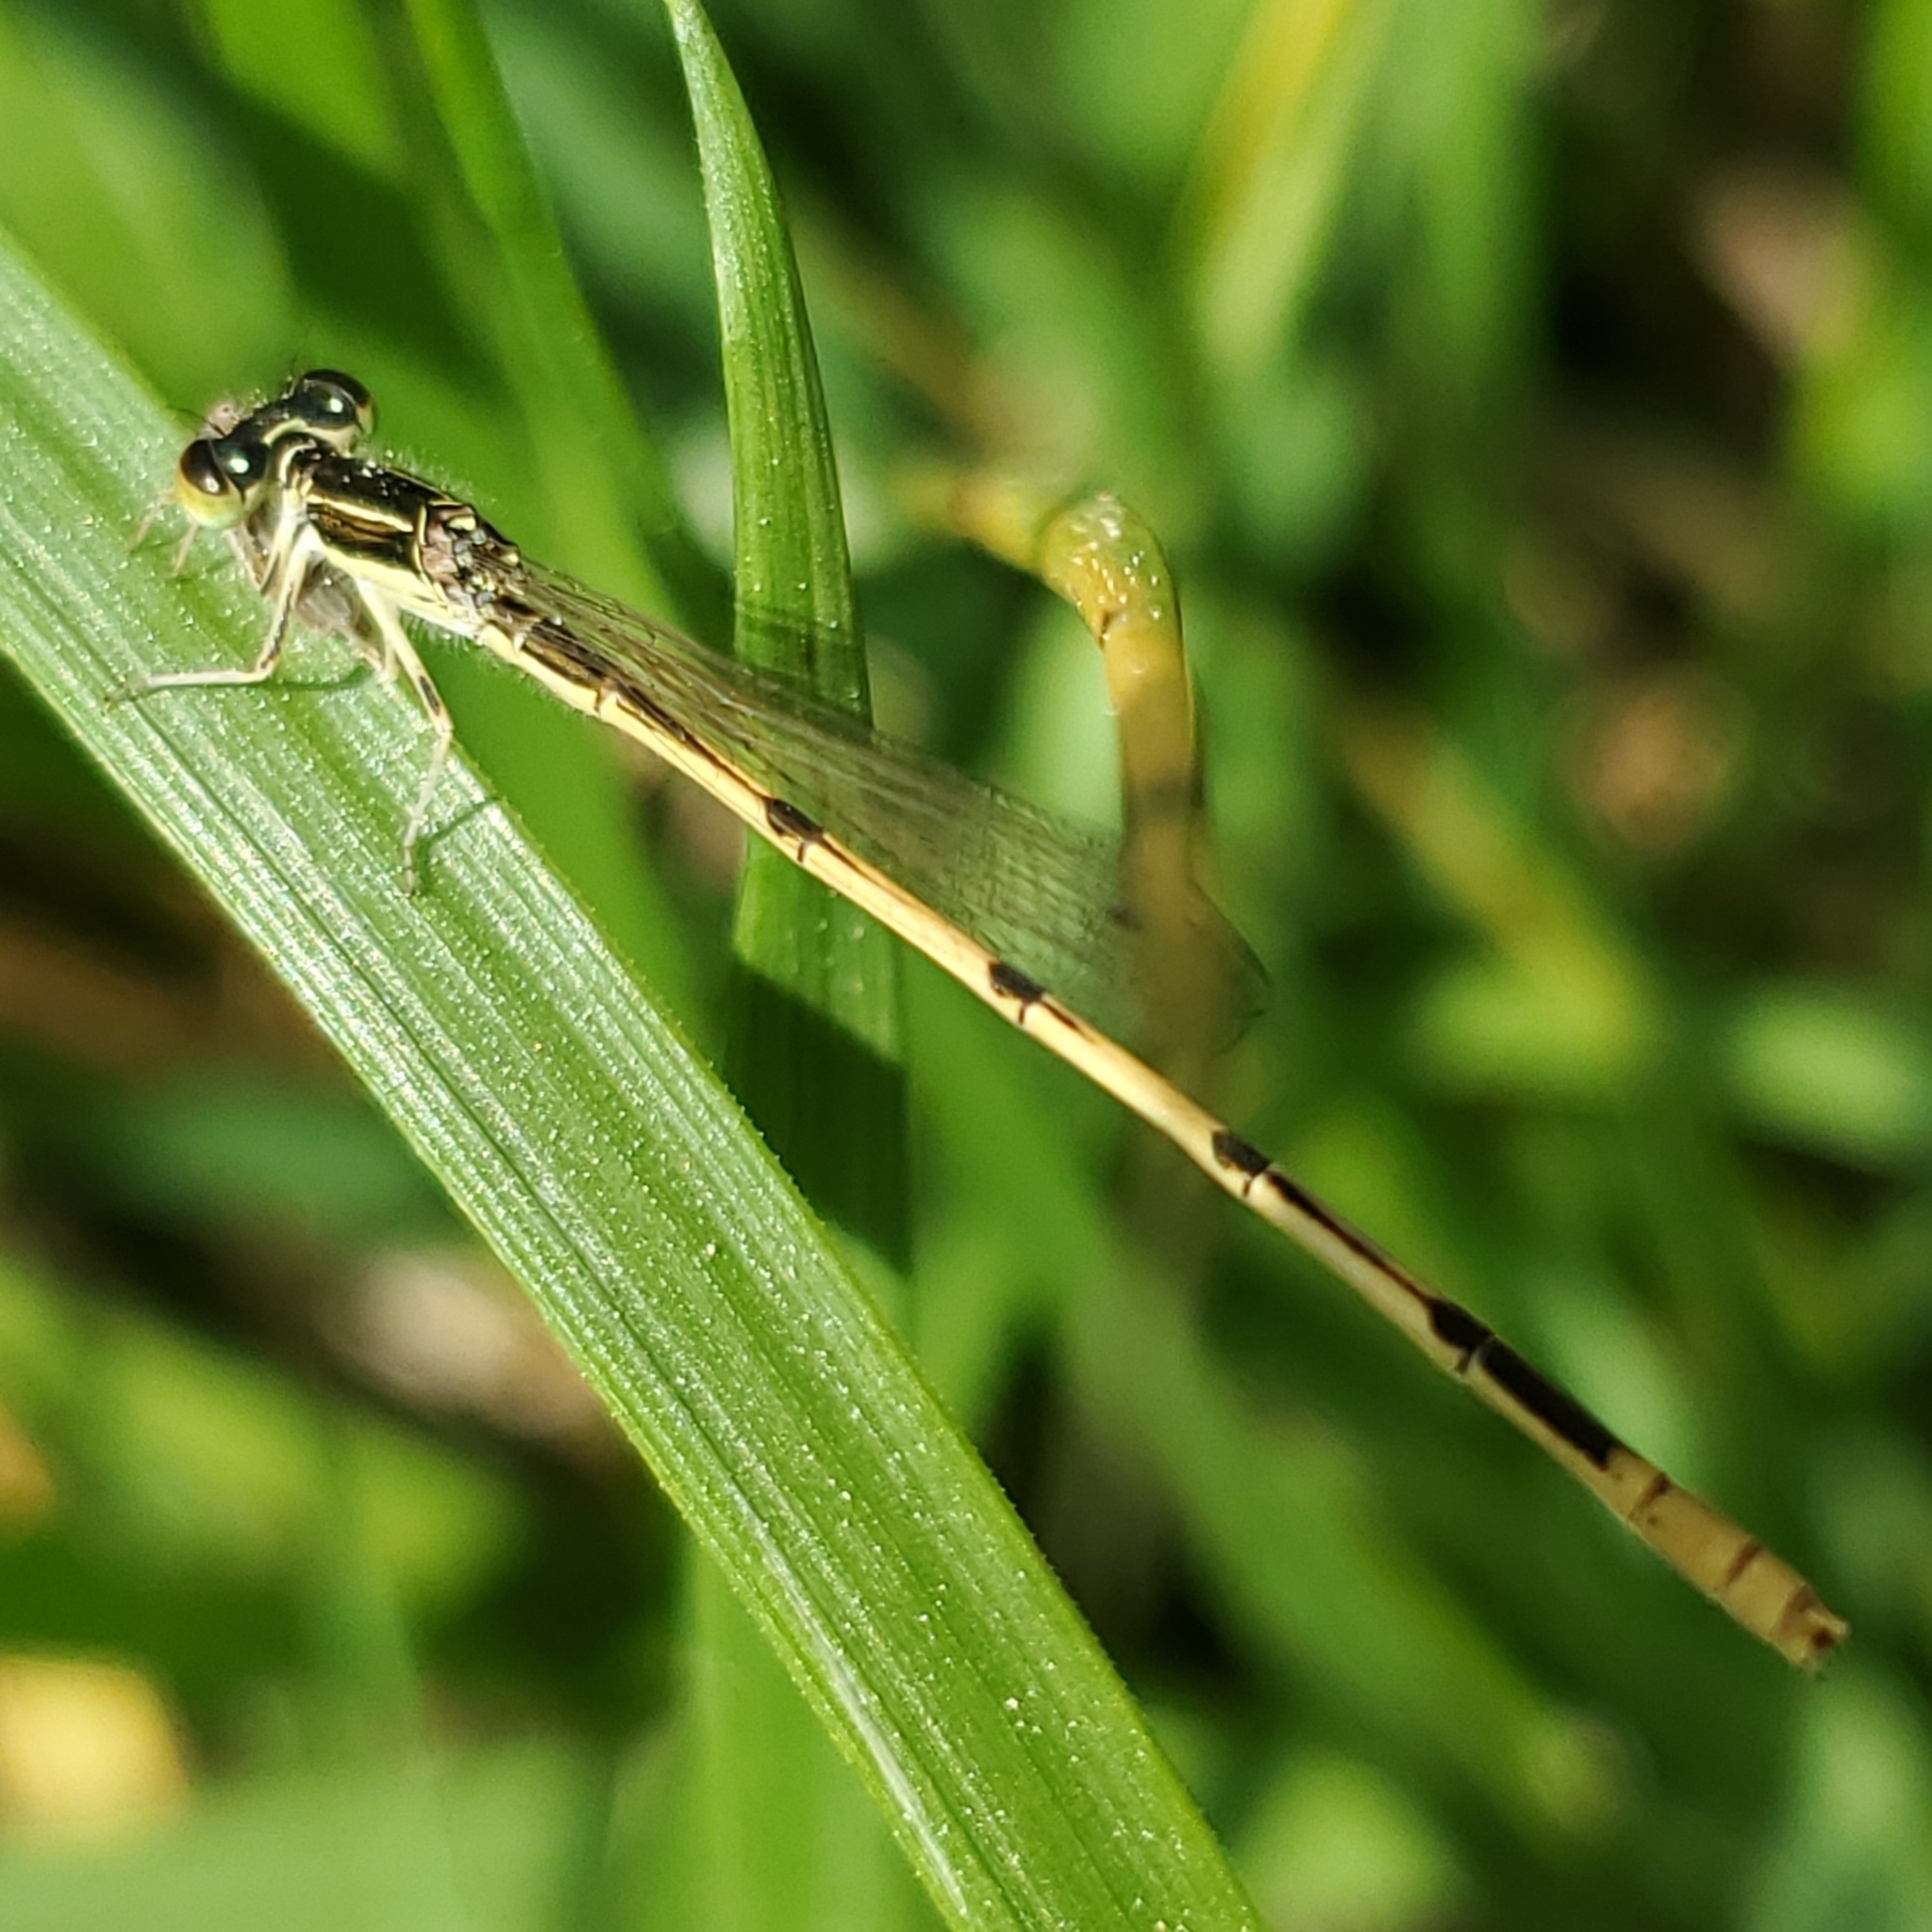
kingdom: Animalia
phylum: Arthropoda
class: Insecta
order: Odonata
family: Coenagrionidae
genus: Ischnura
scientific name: Ischnura hastata
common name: Citrine forktail
